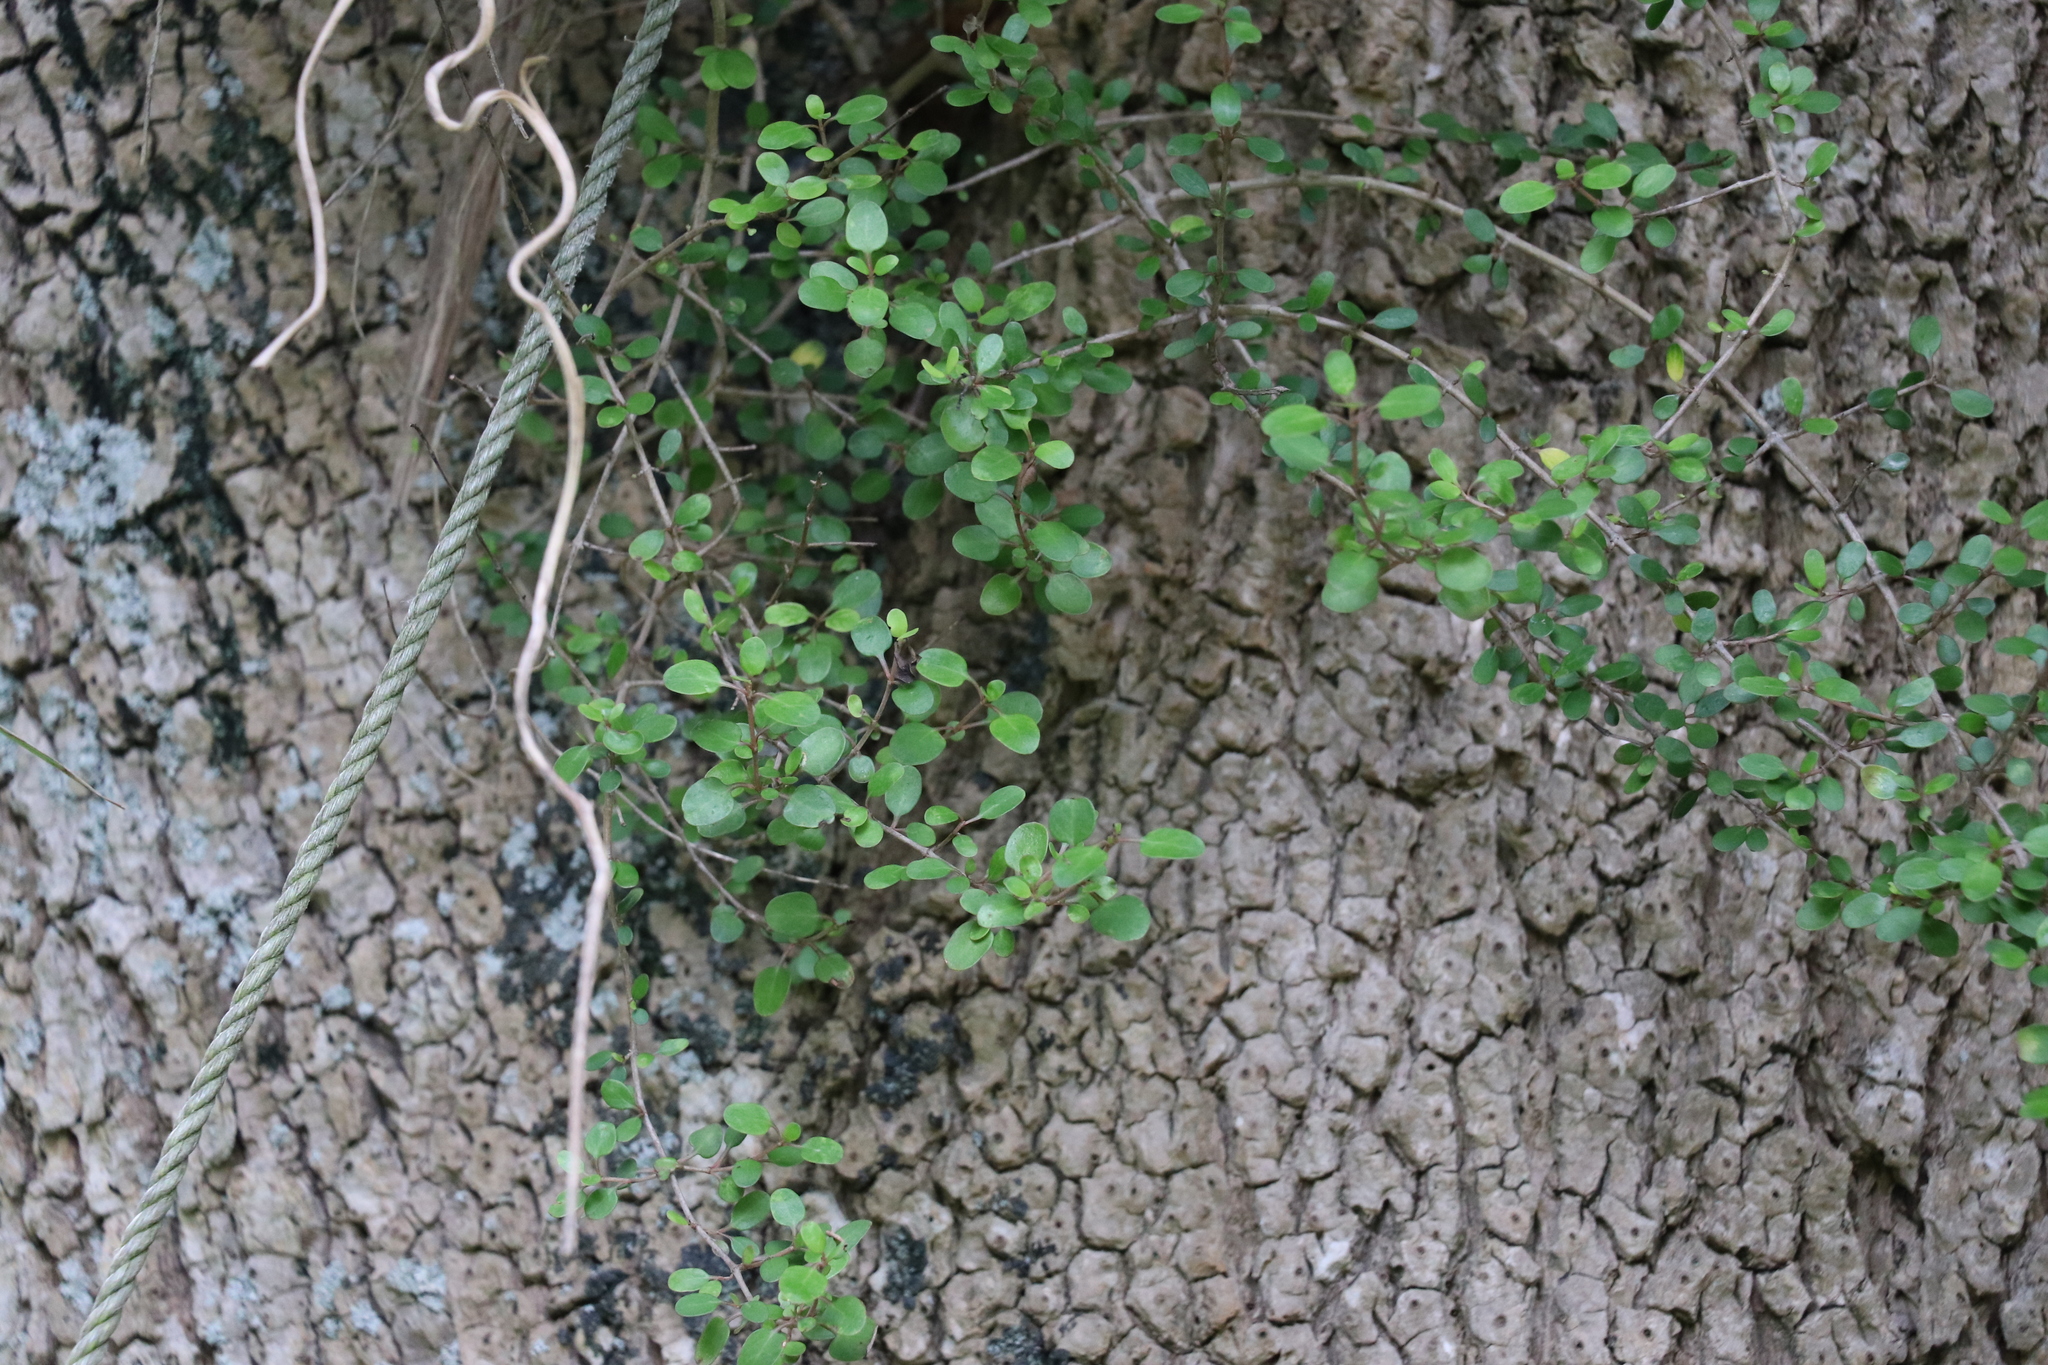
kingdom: Plantae
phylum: Tracheophyta
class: Magnoliopsida
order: Gentianales
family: Rubiaceae
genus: Coprosma
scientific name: Coprosma rhamnoides
